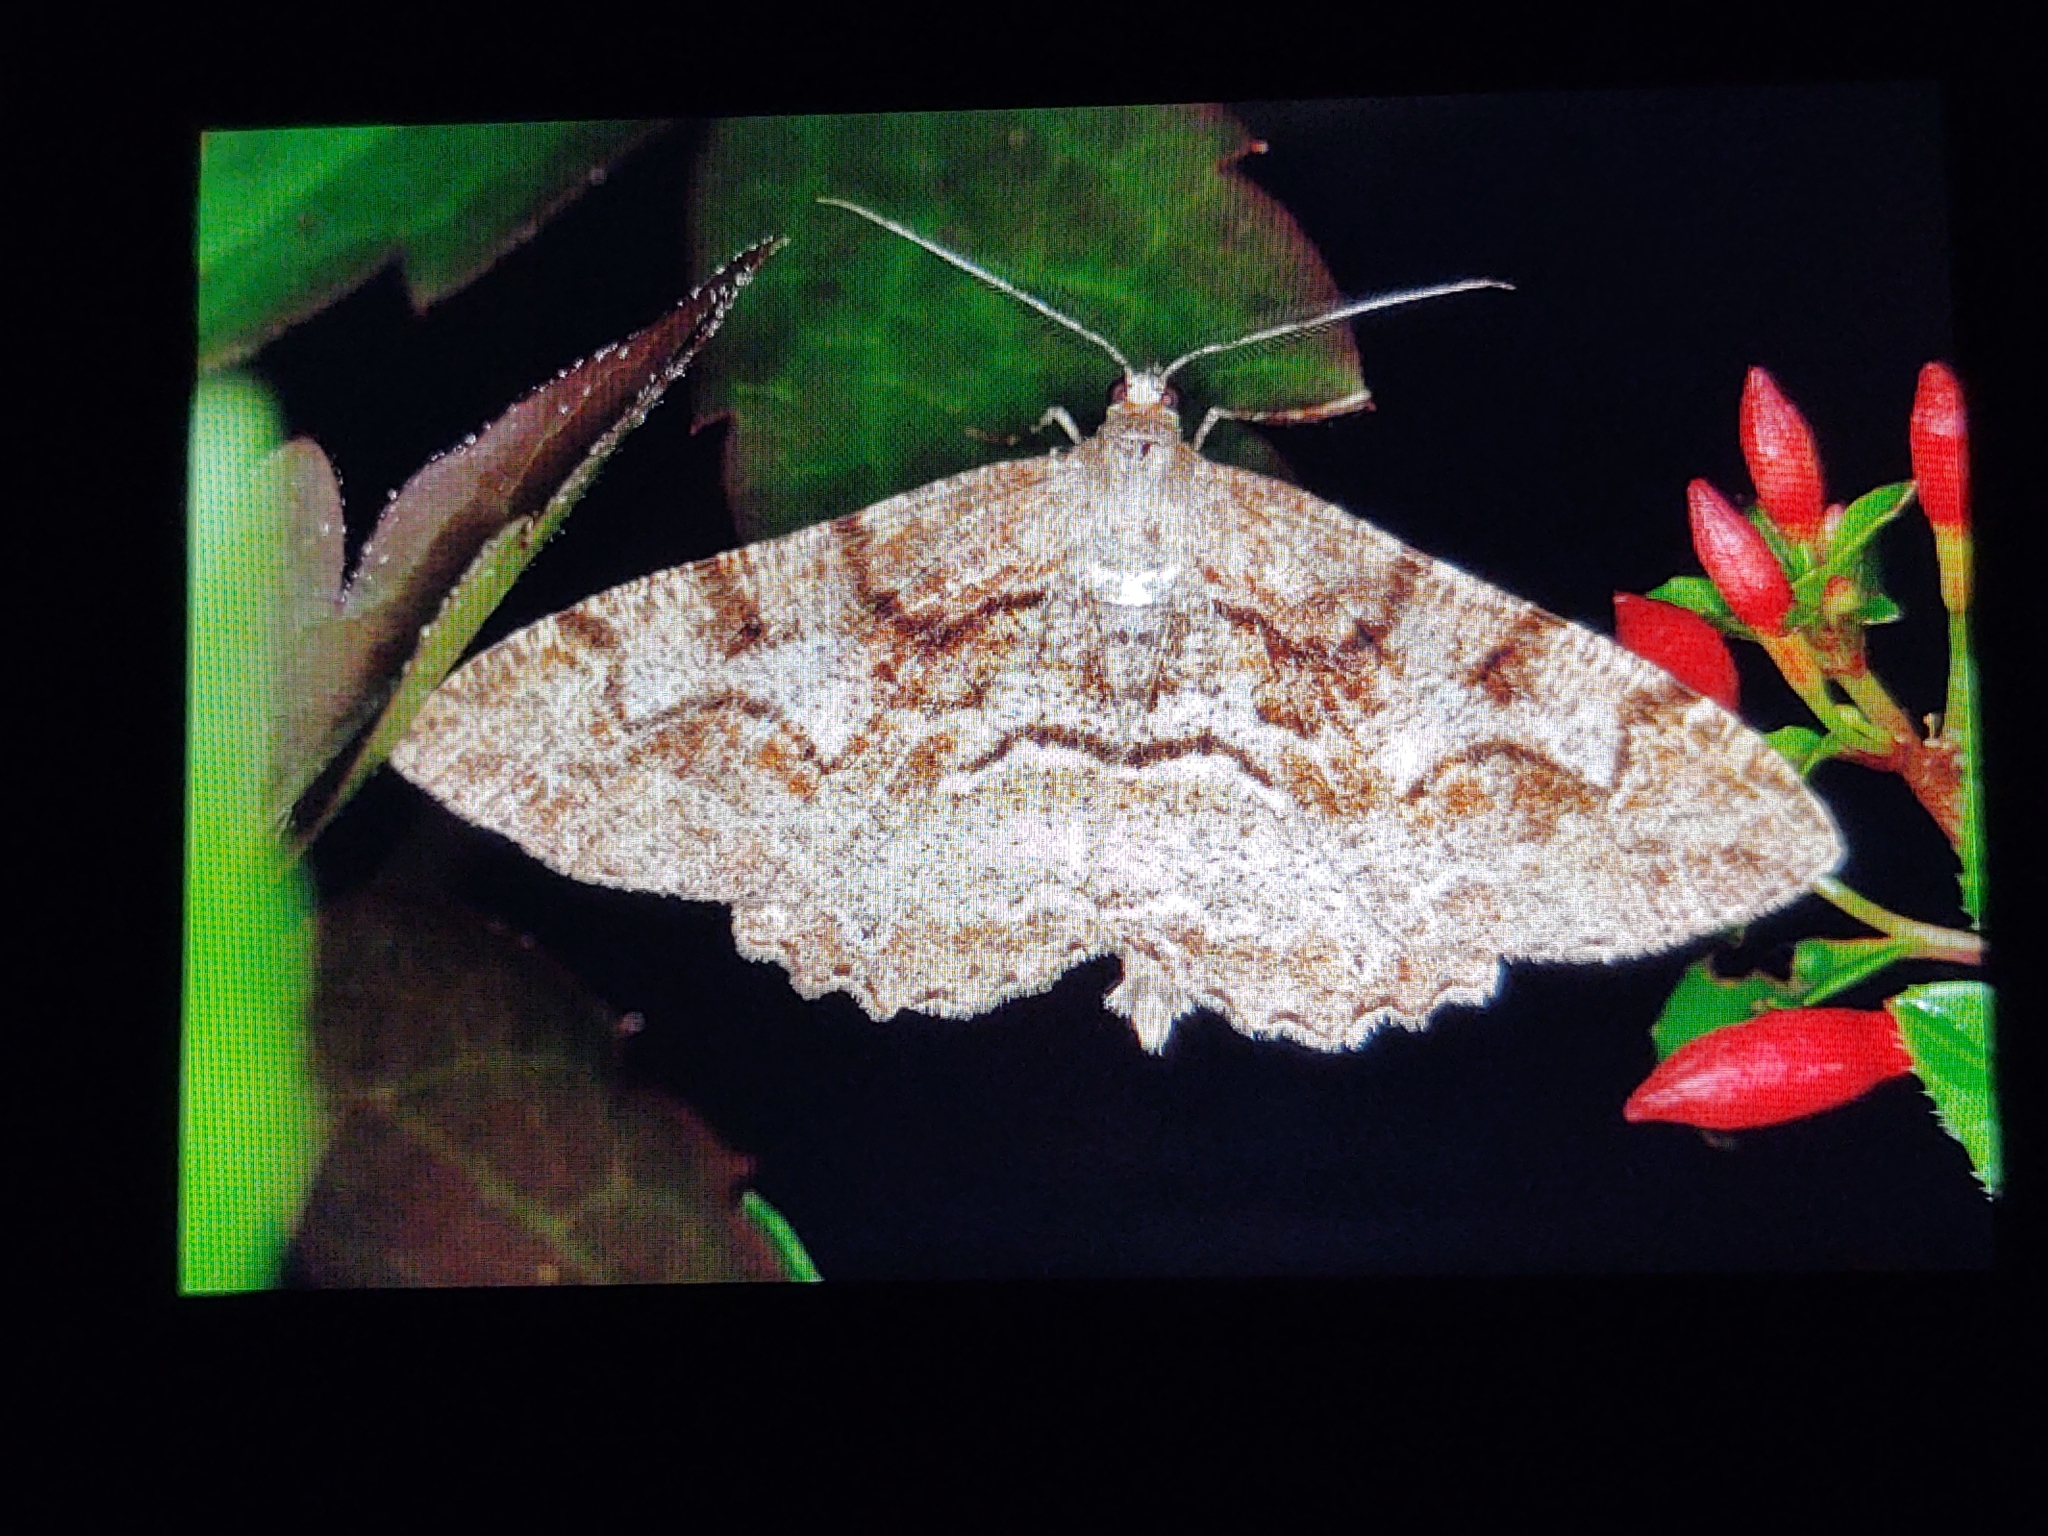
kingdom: Animalia
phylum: Arthropoda
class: Insecta
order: Lepidoptera
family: Geometridae
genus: Alcis
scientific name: Alcis repandata
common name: Mottled beauty
